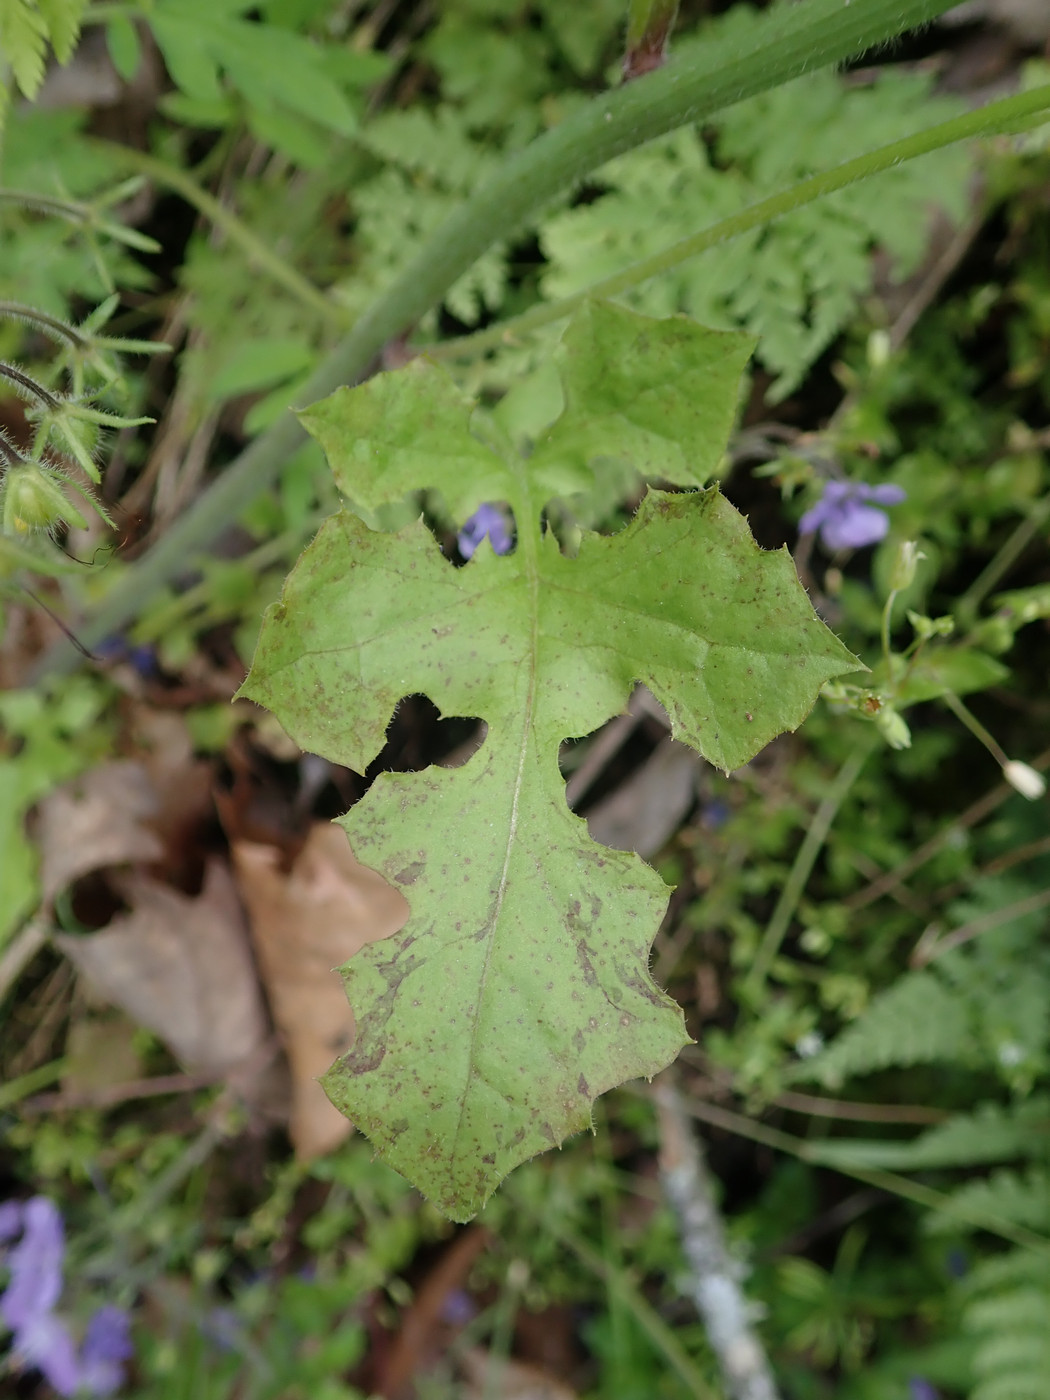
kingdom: Plantae
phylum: Tracheophyta
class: Magnoliopsida
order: Asterales
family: Asteraceae
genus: Youngia
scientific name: Youngia japonica
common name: Oriental false hawksbeard
